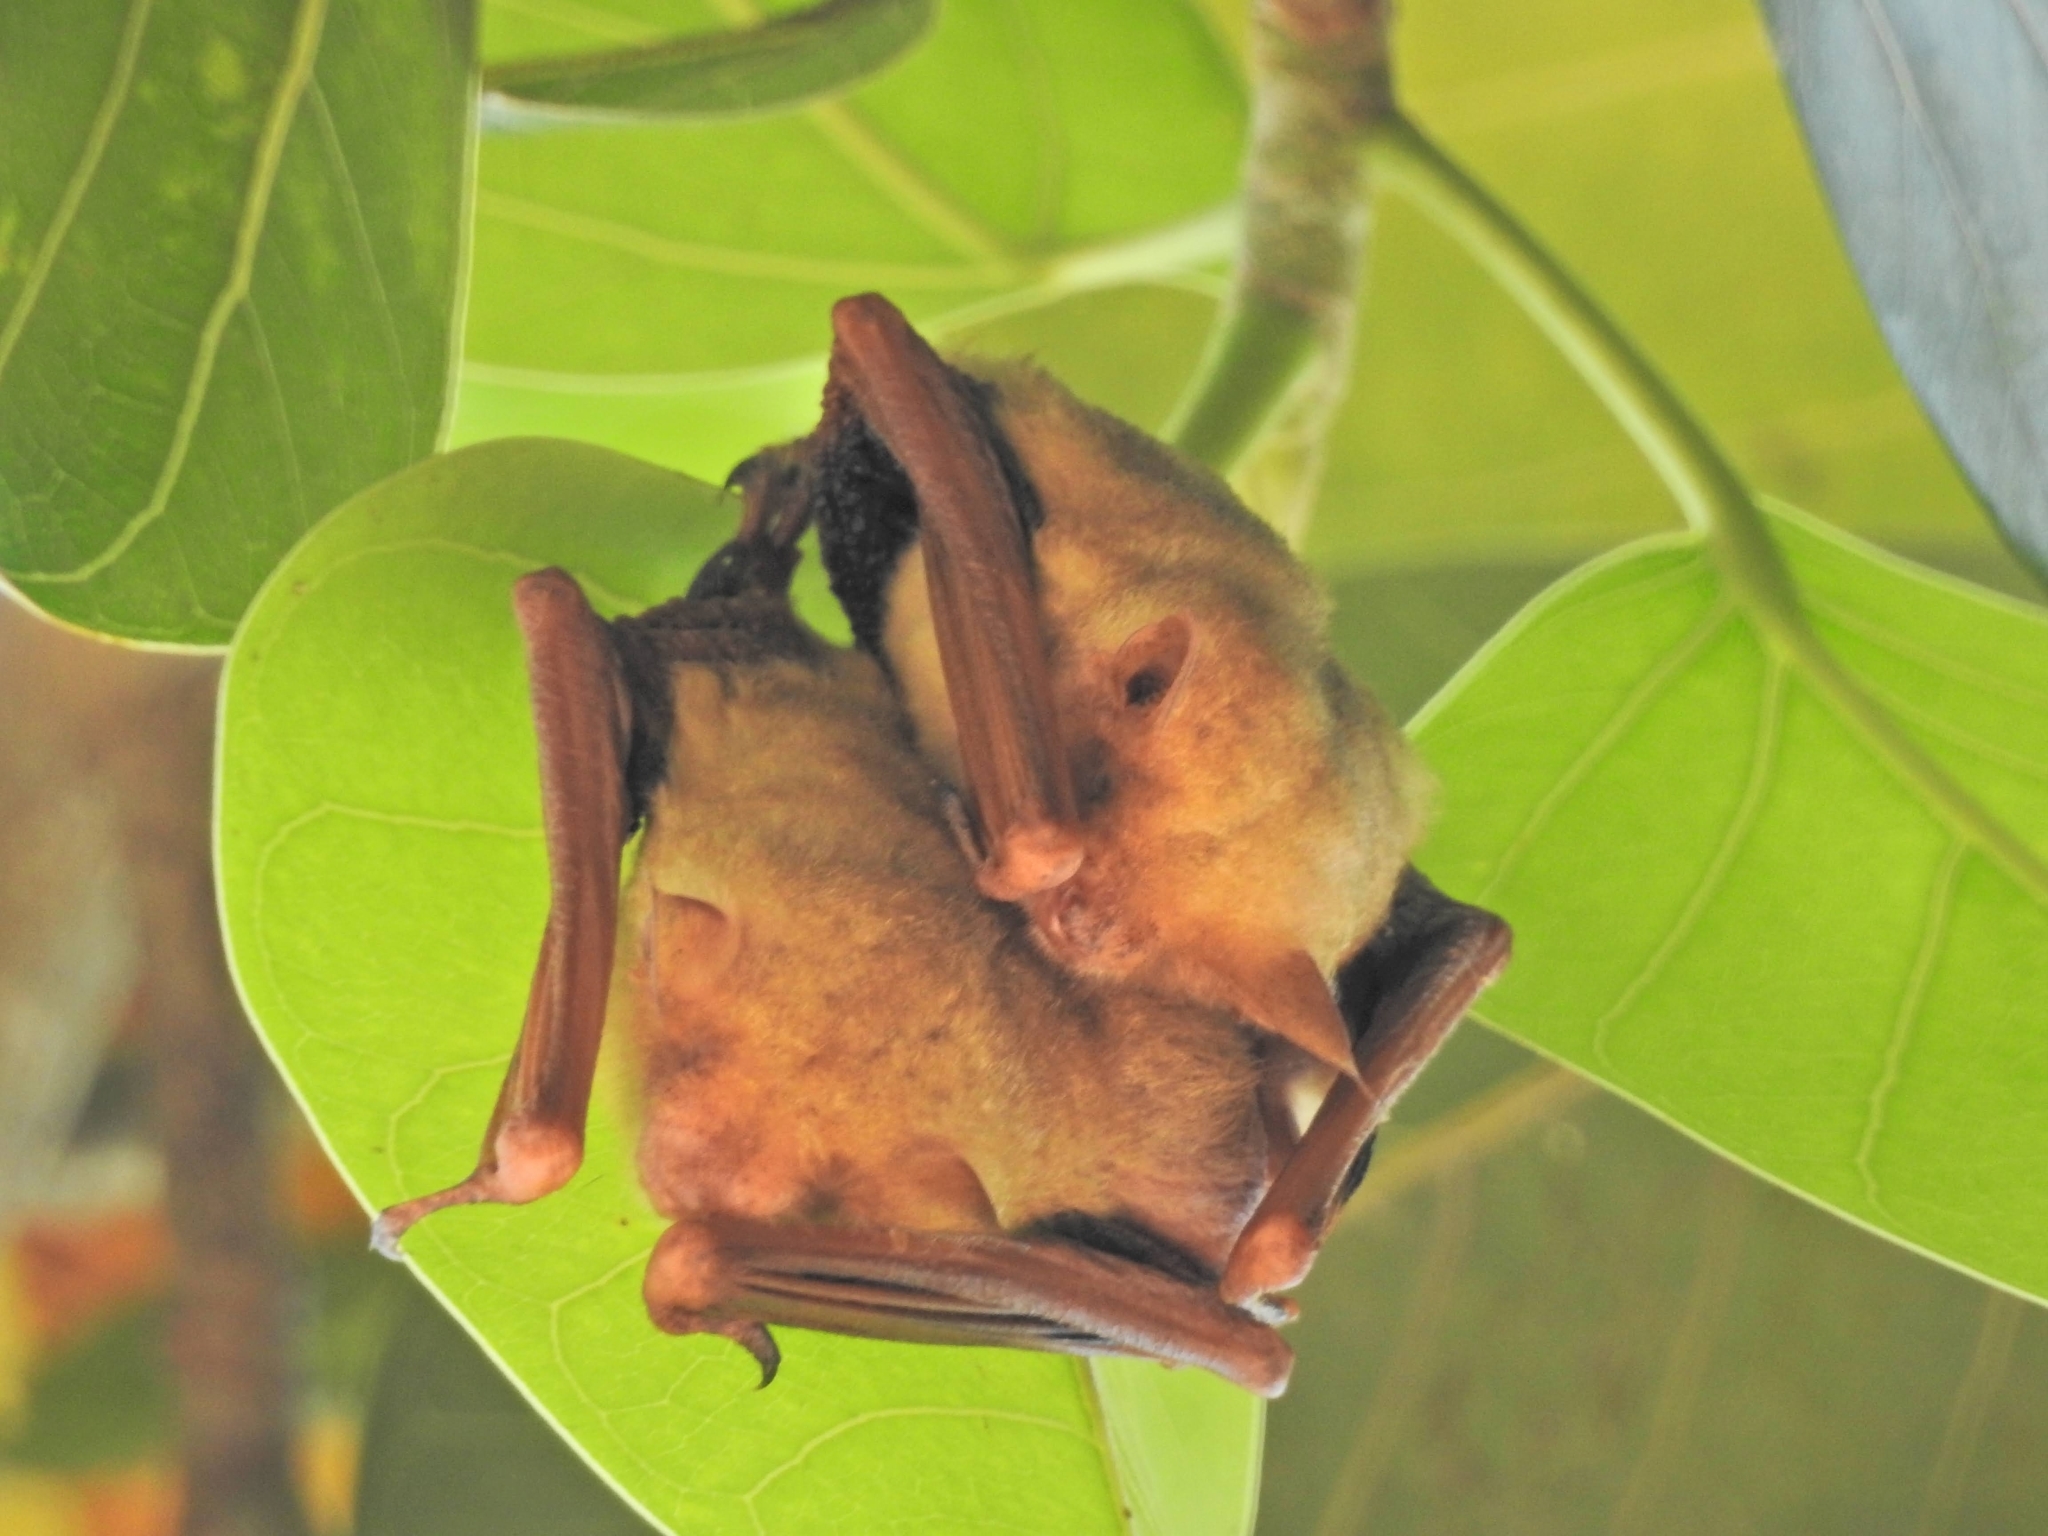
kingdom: Animalia
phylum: Chordata
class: Mammalia
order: Chiroptera
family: Vespertilionidae
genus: Myotis
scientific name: Myotis formosus
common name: Hodgson's myotis
